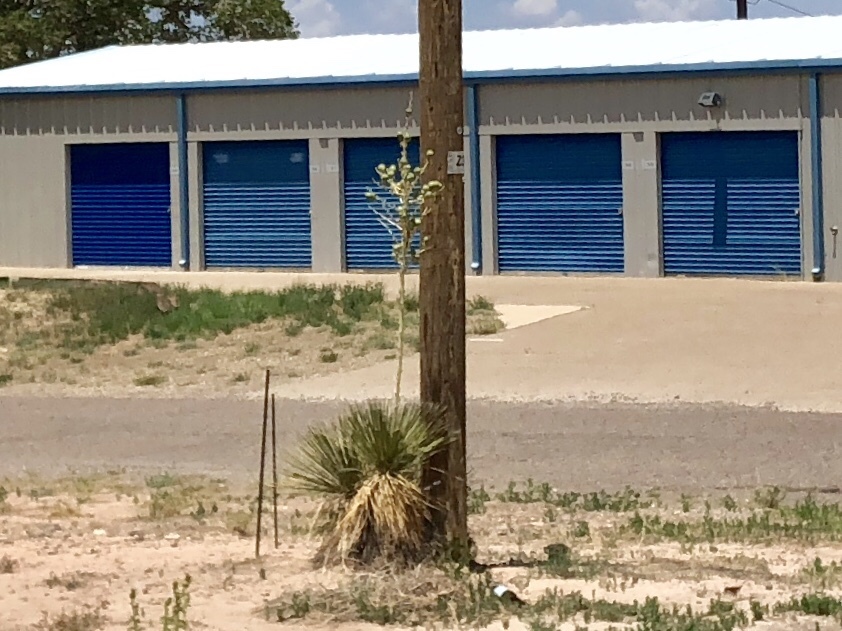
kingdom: Plantae
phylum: Tracheophyta
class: Liliopsida
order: Asparagales
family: Asparagaceae
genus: Yucca
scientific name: Yucca elata
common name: Palmella
